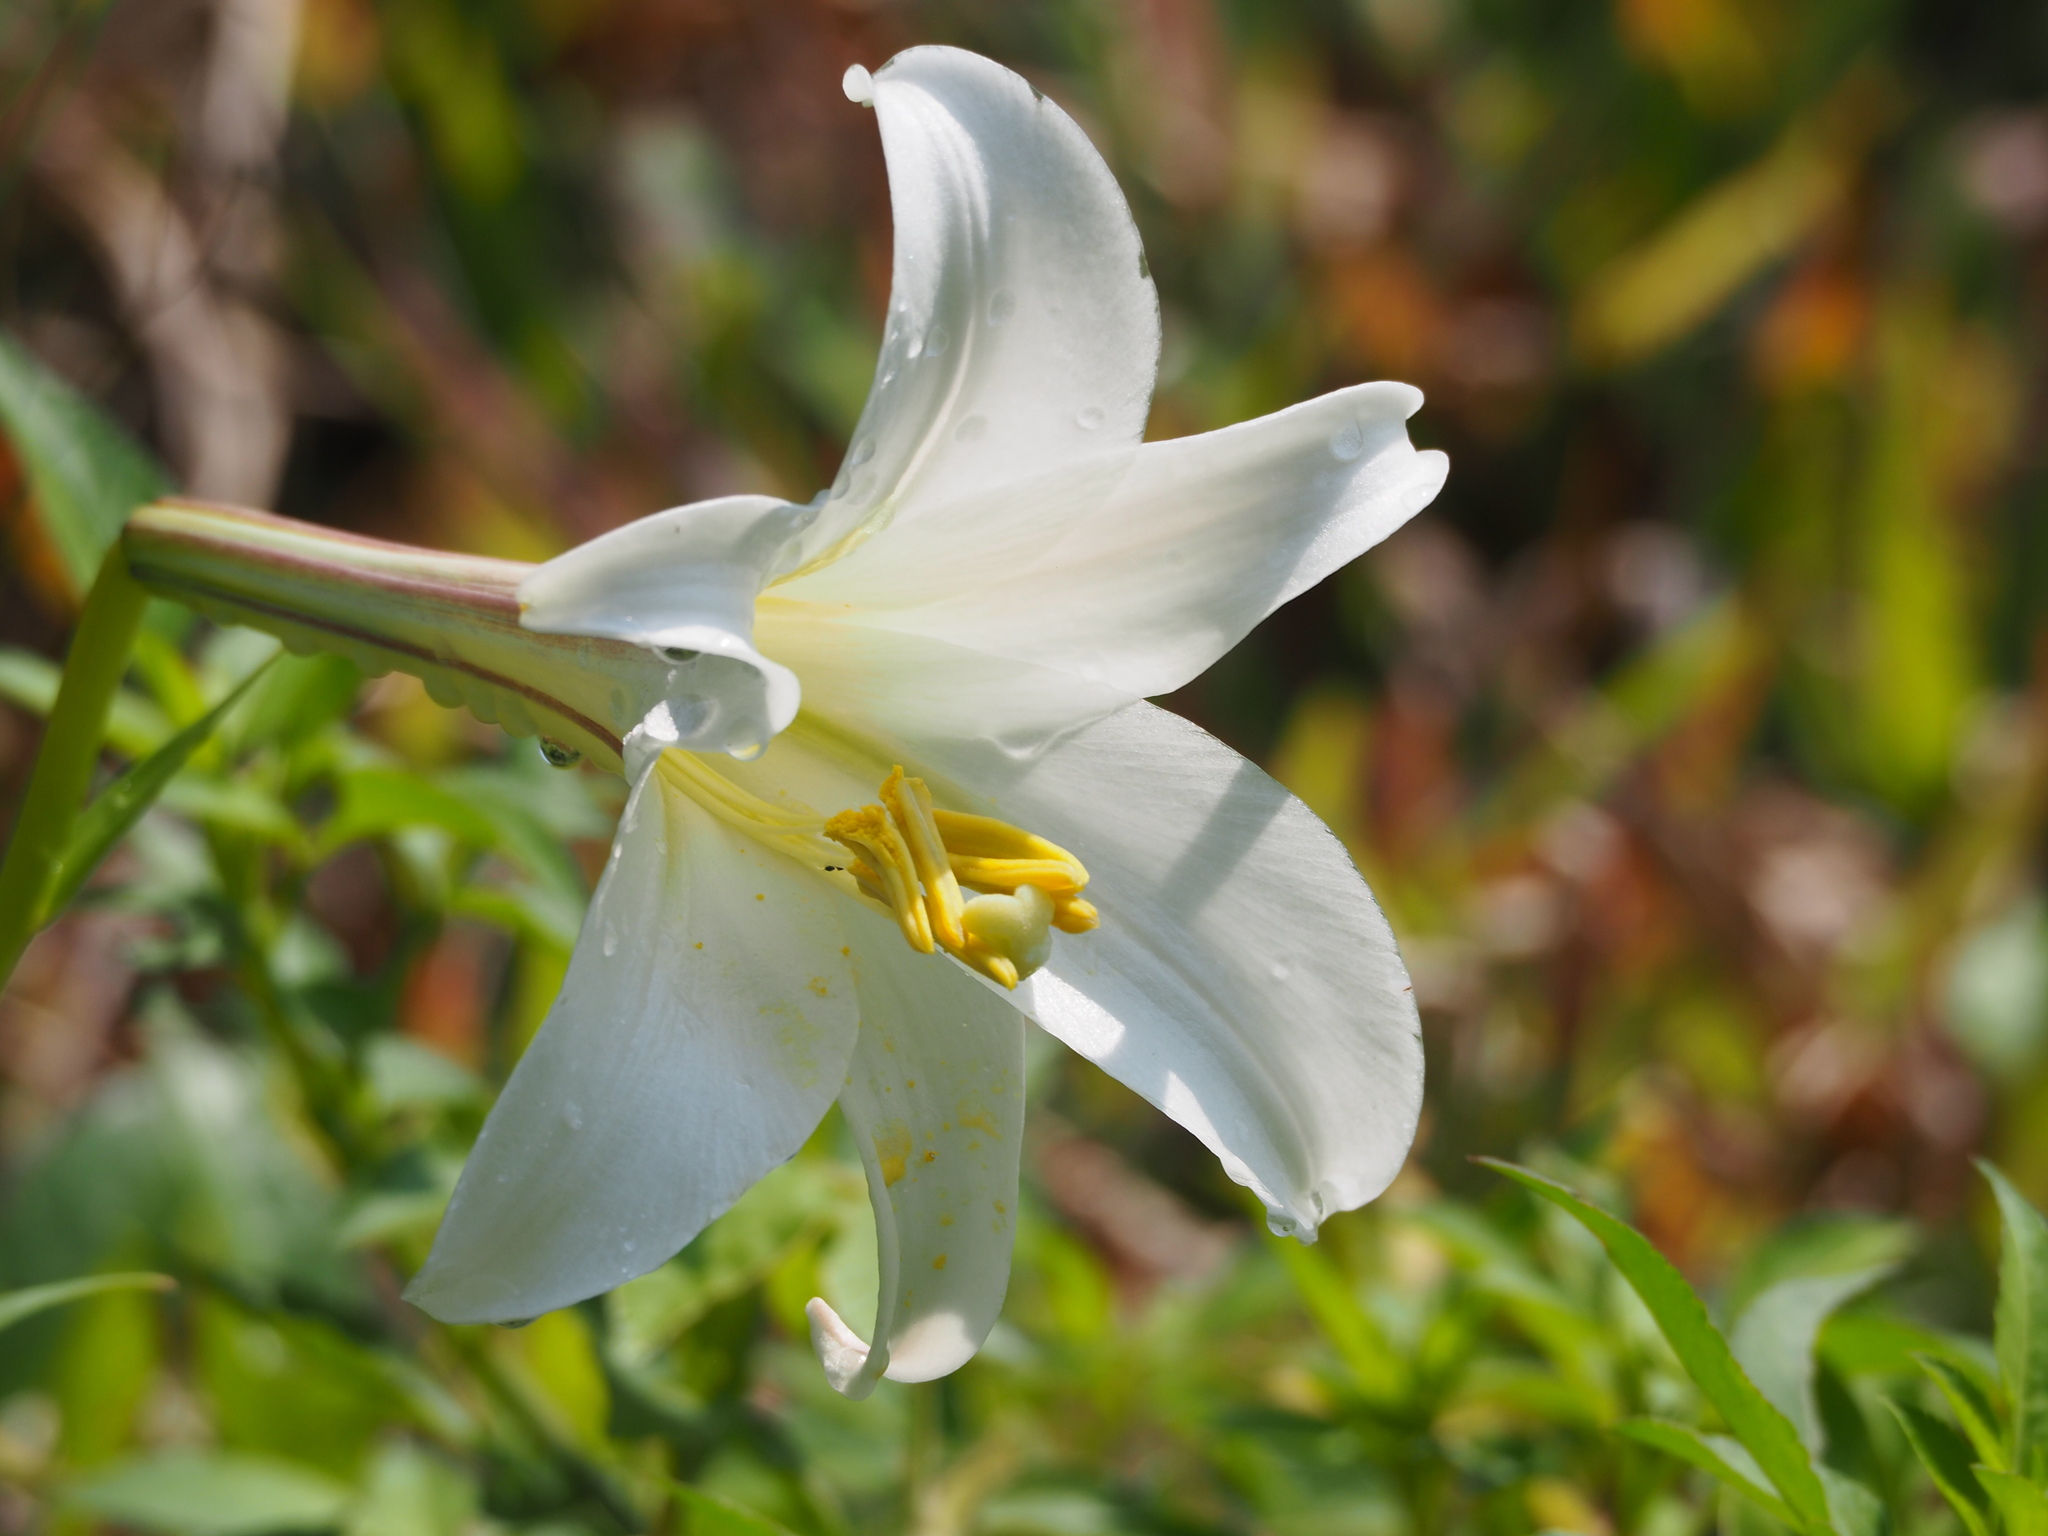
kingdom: Plantae
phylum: Tracheophyta
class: Liliopsida
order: Liliales
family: Liliaceae
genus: Lilium
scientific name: Lilium longiflorum
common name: Easter lily
